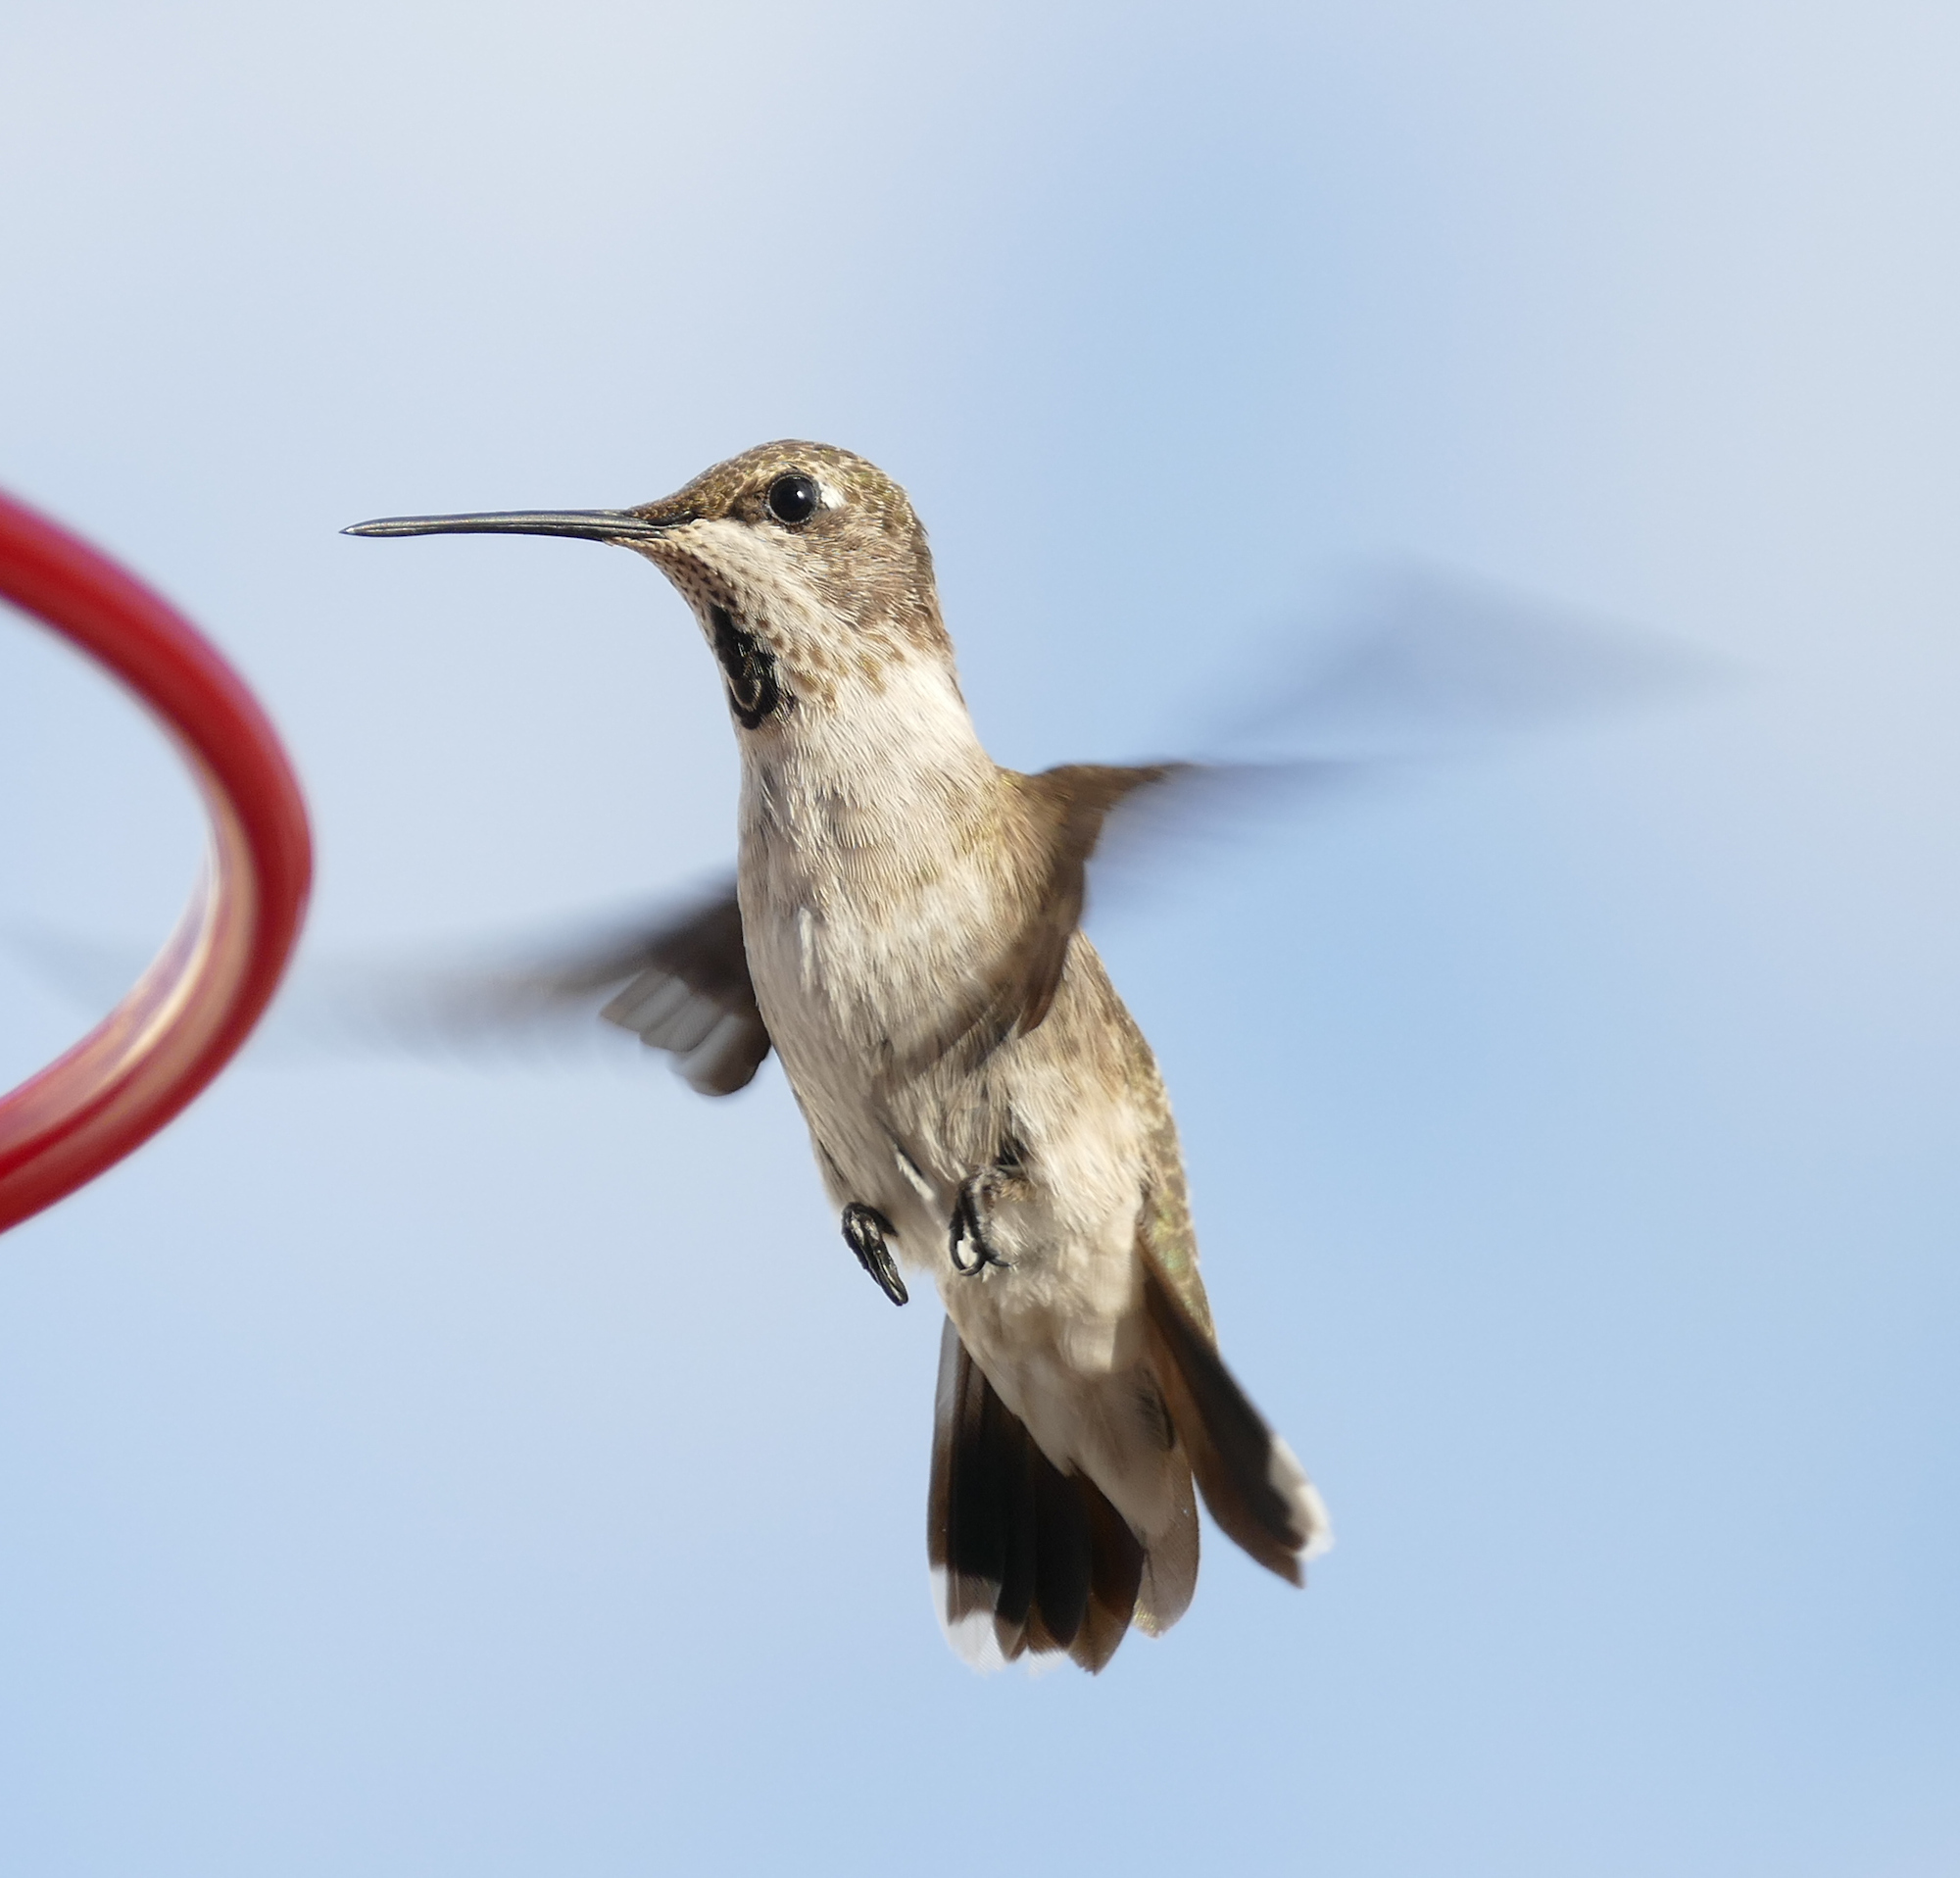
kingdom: Animalia
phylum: Chordata
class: Aves
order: Apodiformes
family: Trochilidae
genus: Archilochus
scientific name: Archilochus alexandri
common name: Black-chinned hummingbird
